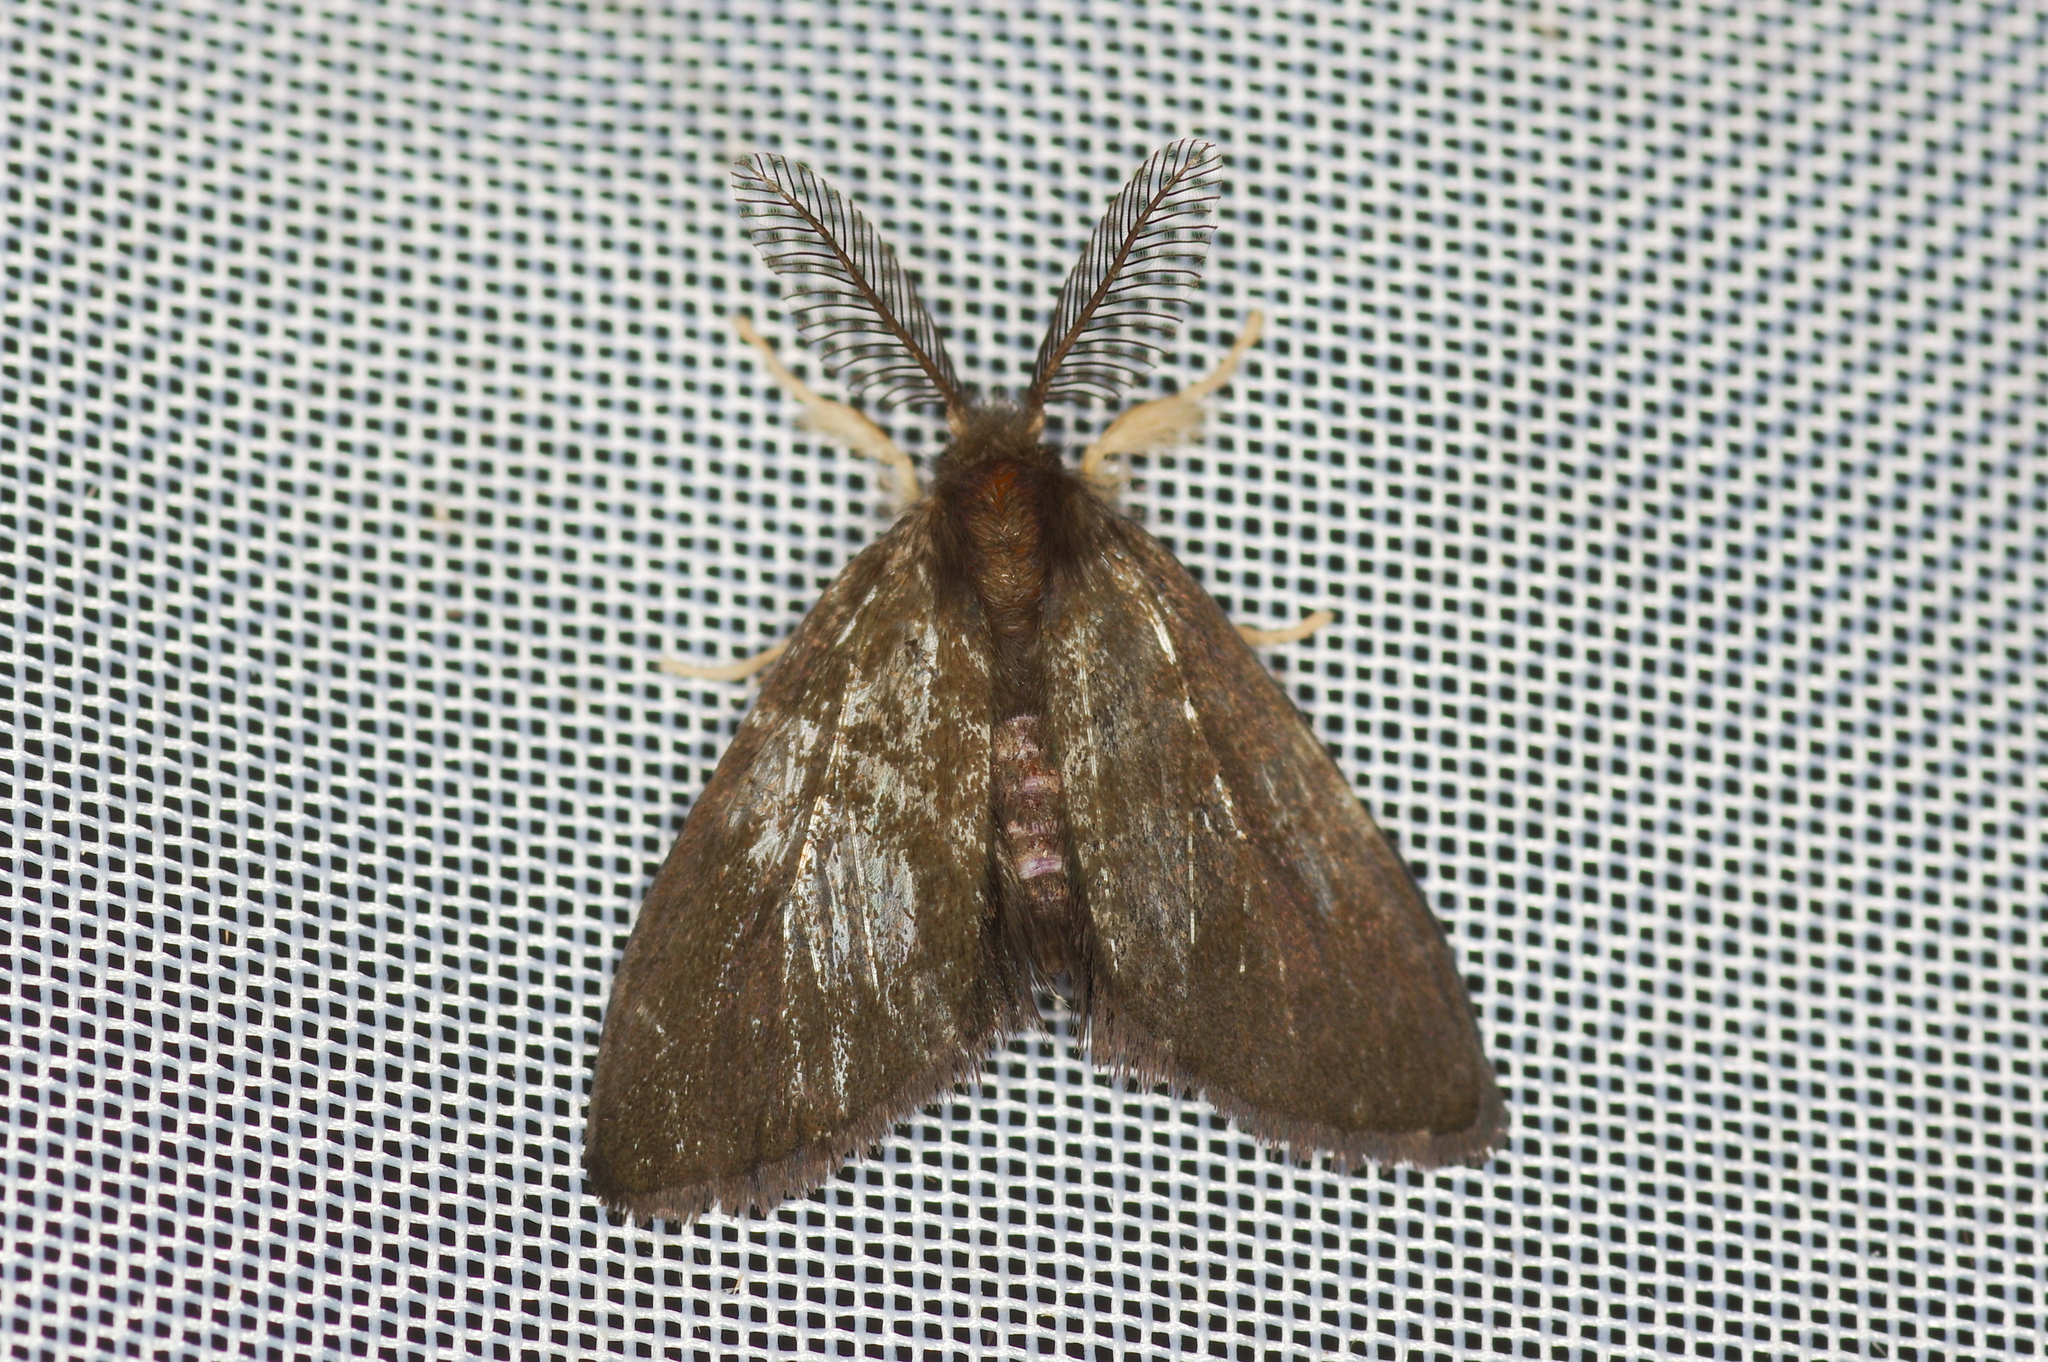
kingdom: Animalia
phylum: Arthropoda
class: Insecta
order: Lepidoptera
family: Erebidae
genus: Orvasca
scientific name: Orvasca dimorphissima
